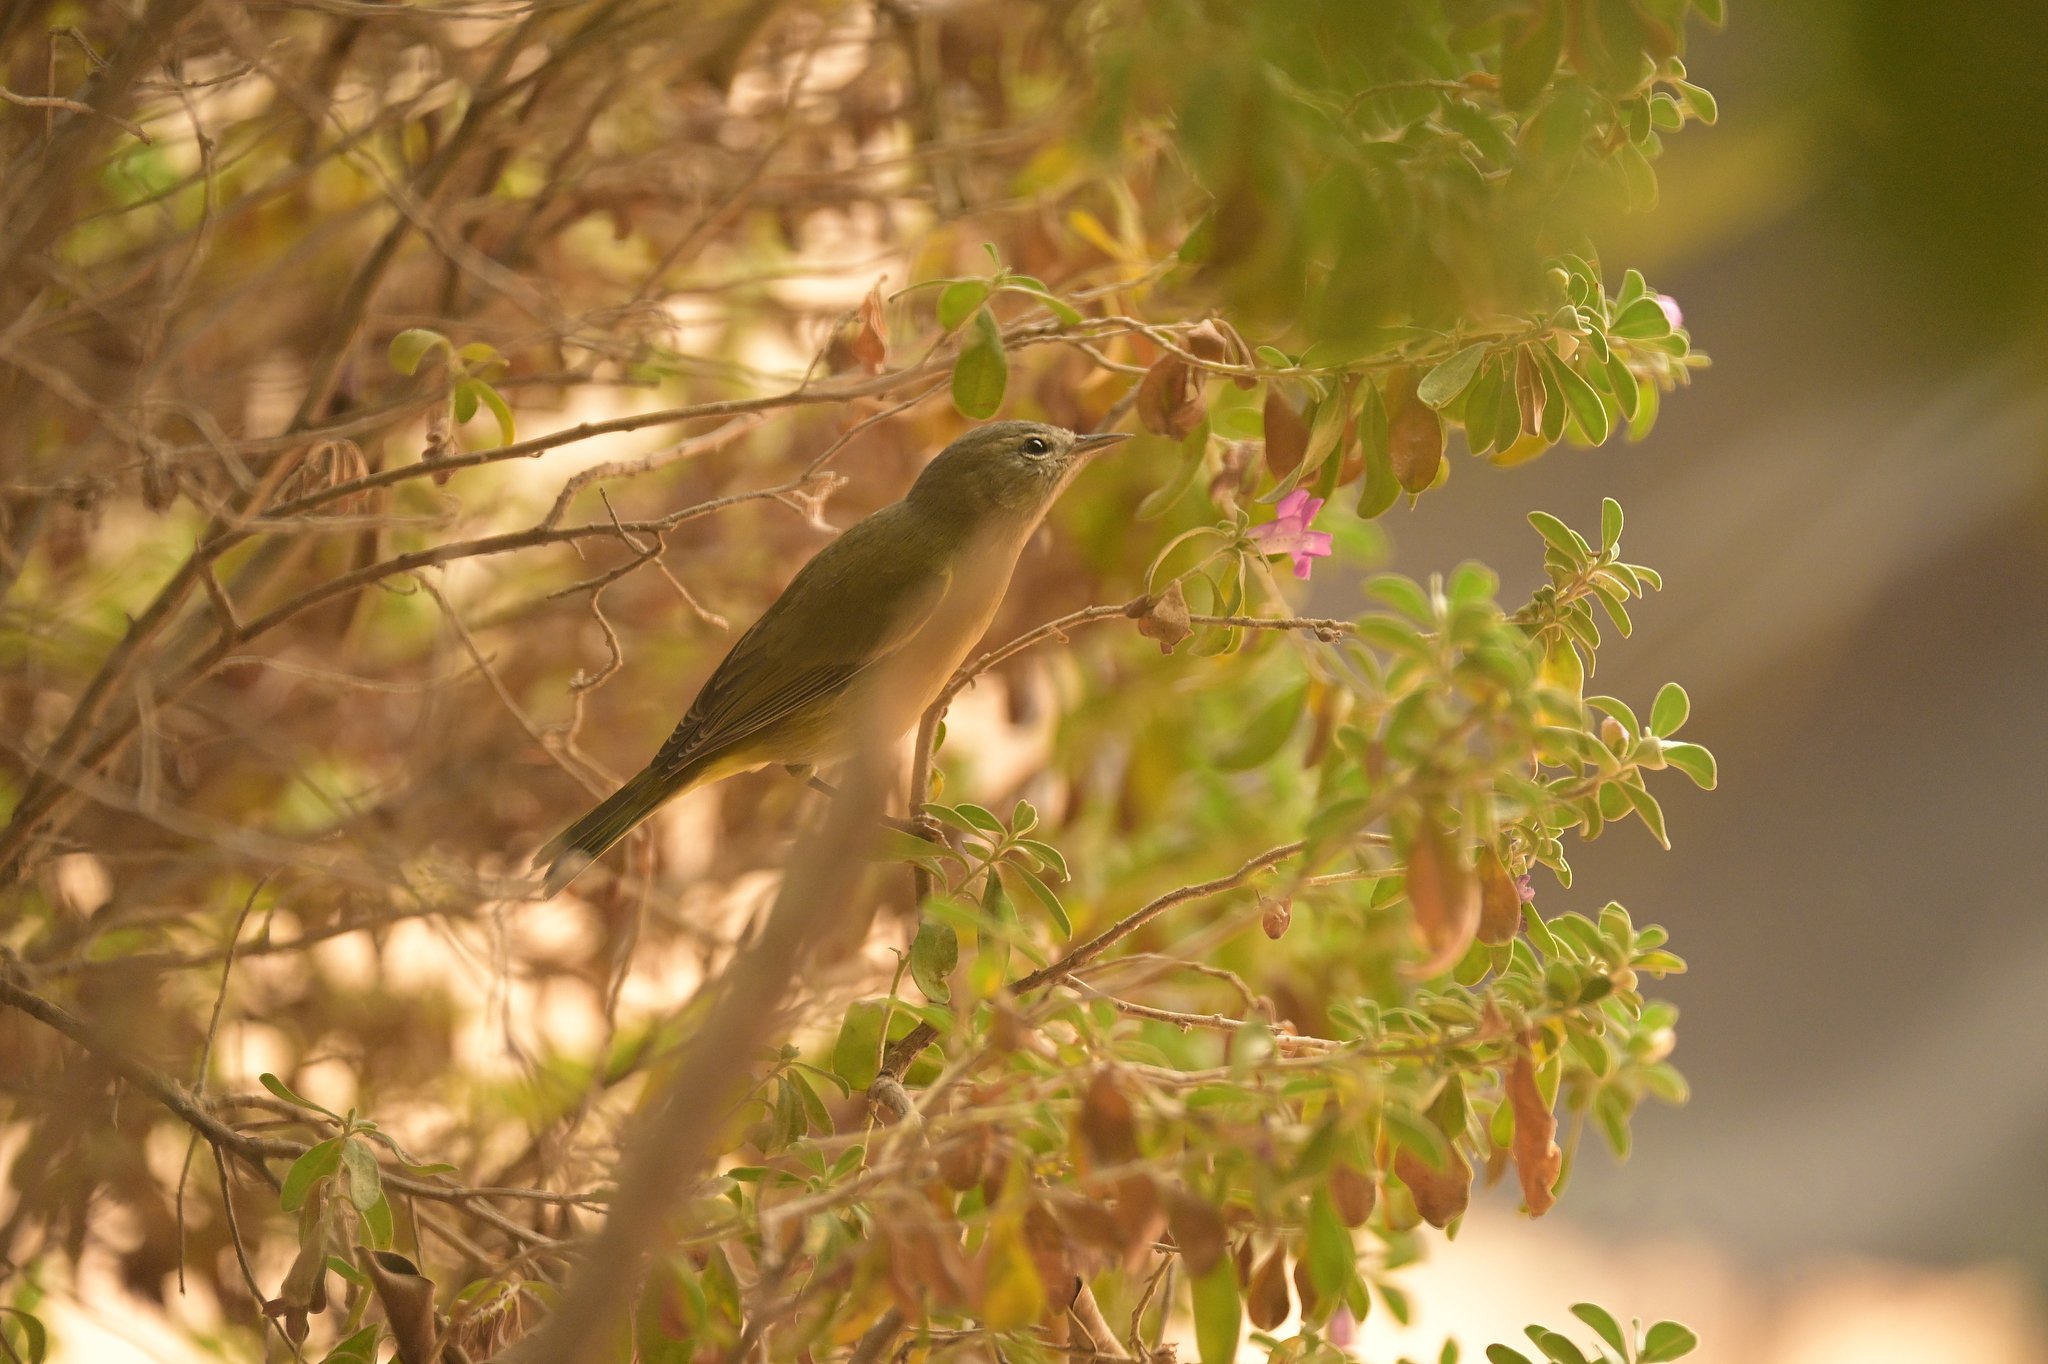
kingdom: Animalia
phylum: Chordata
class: Aves
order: Passeriformes
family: Parulidae
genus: Leiothlypis
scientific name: Leiothlypis celata
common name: Orange-crowned warbler
